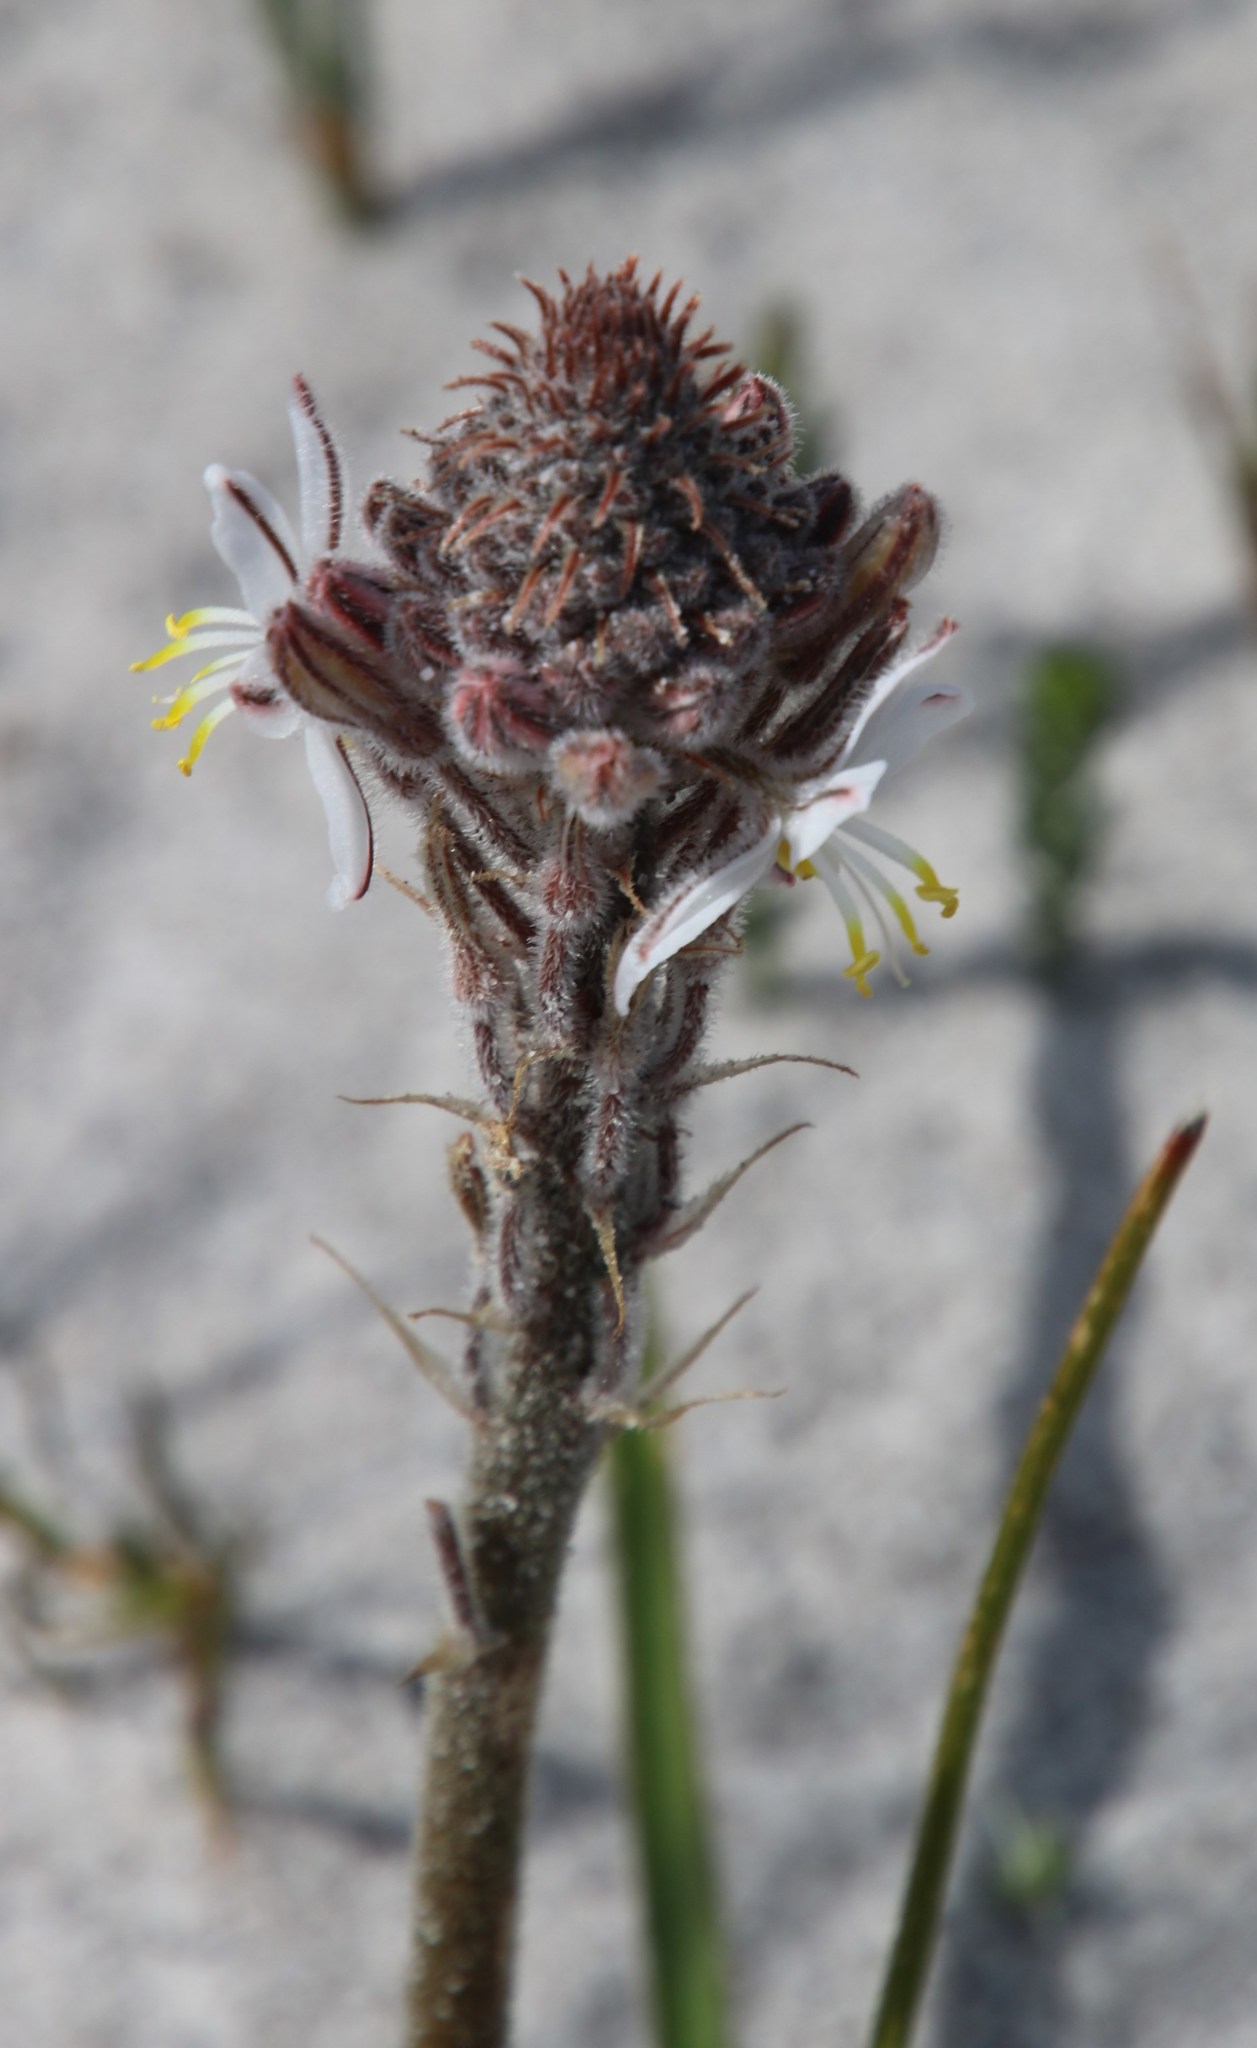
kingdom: Plantae
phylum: Tracheophyta
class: Liliopsida
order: Asparagales
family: Asphodelaceae
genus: Trachyandra
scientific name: Trachyandra hirsutiflora
